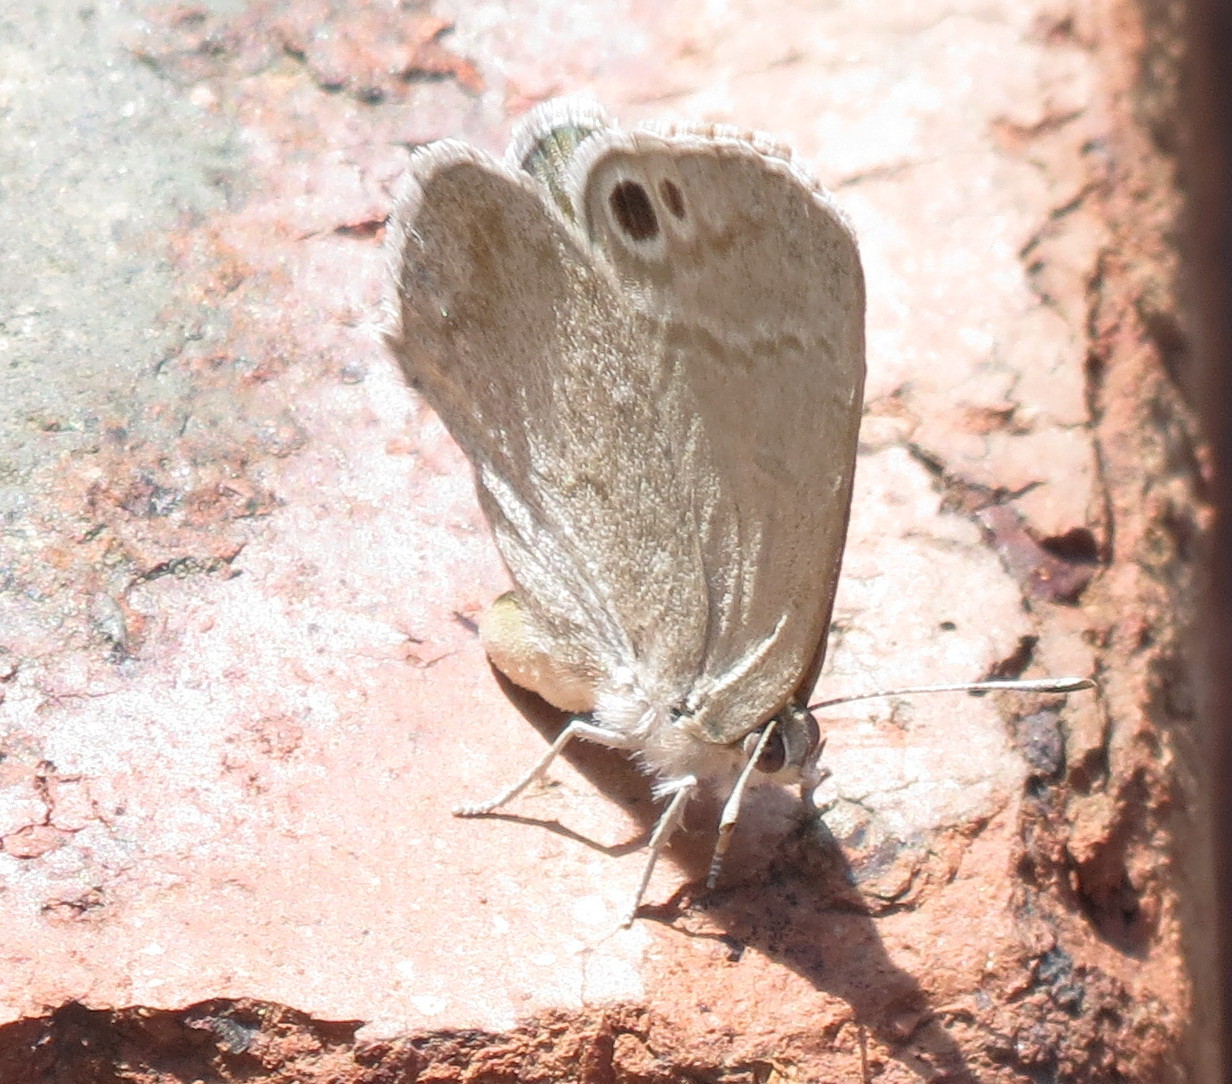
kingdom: Animalia
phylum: Arthropoda
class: Insecta
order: Lepidoptera
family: Lycaenidae
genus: Leptomyrina
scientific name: Leptomyrina gorgias
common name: Common black-eye
